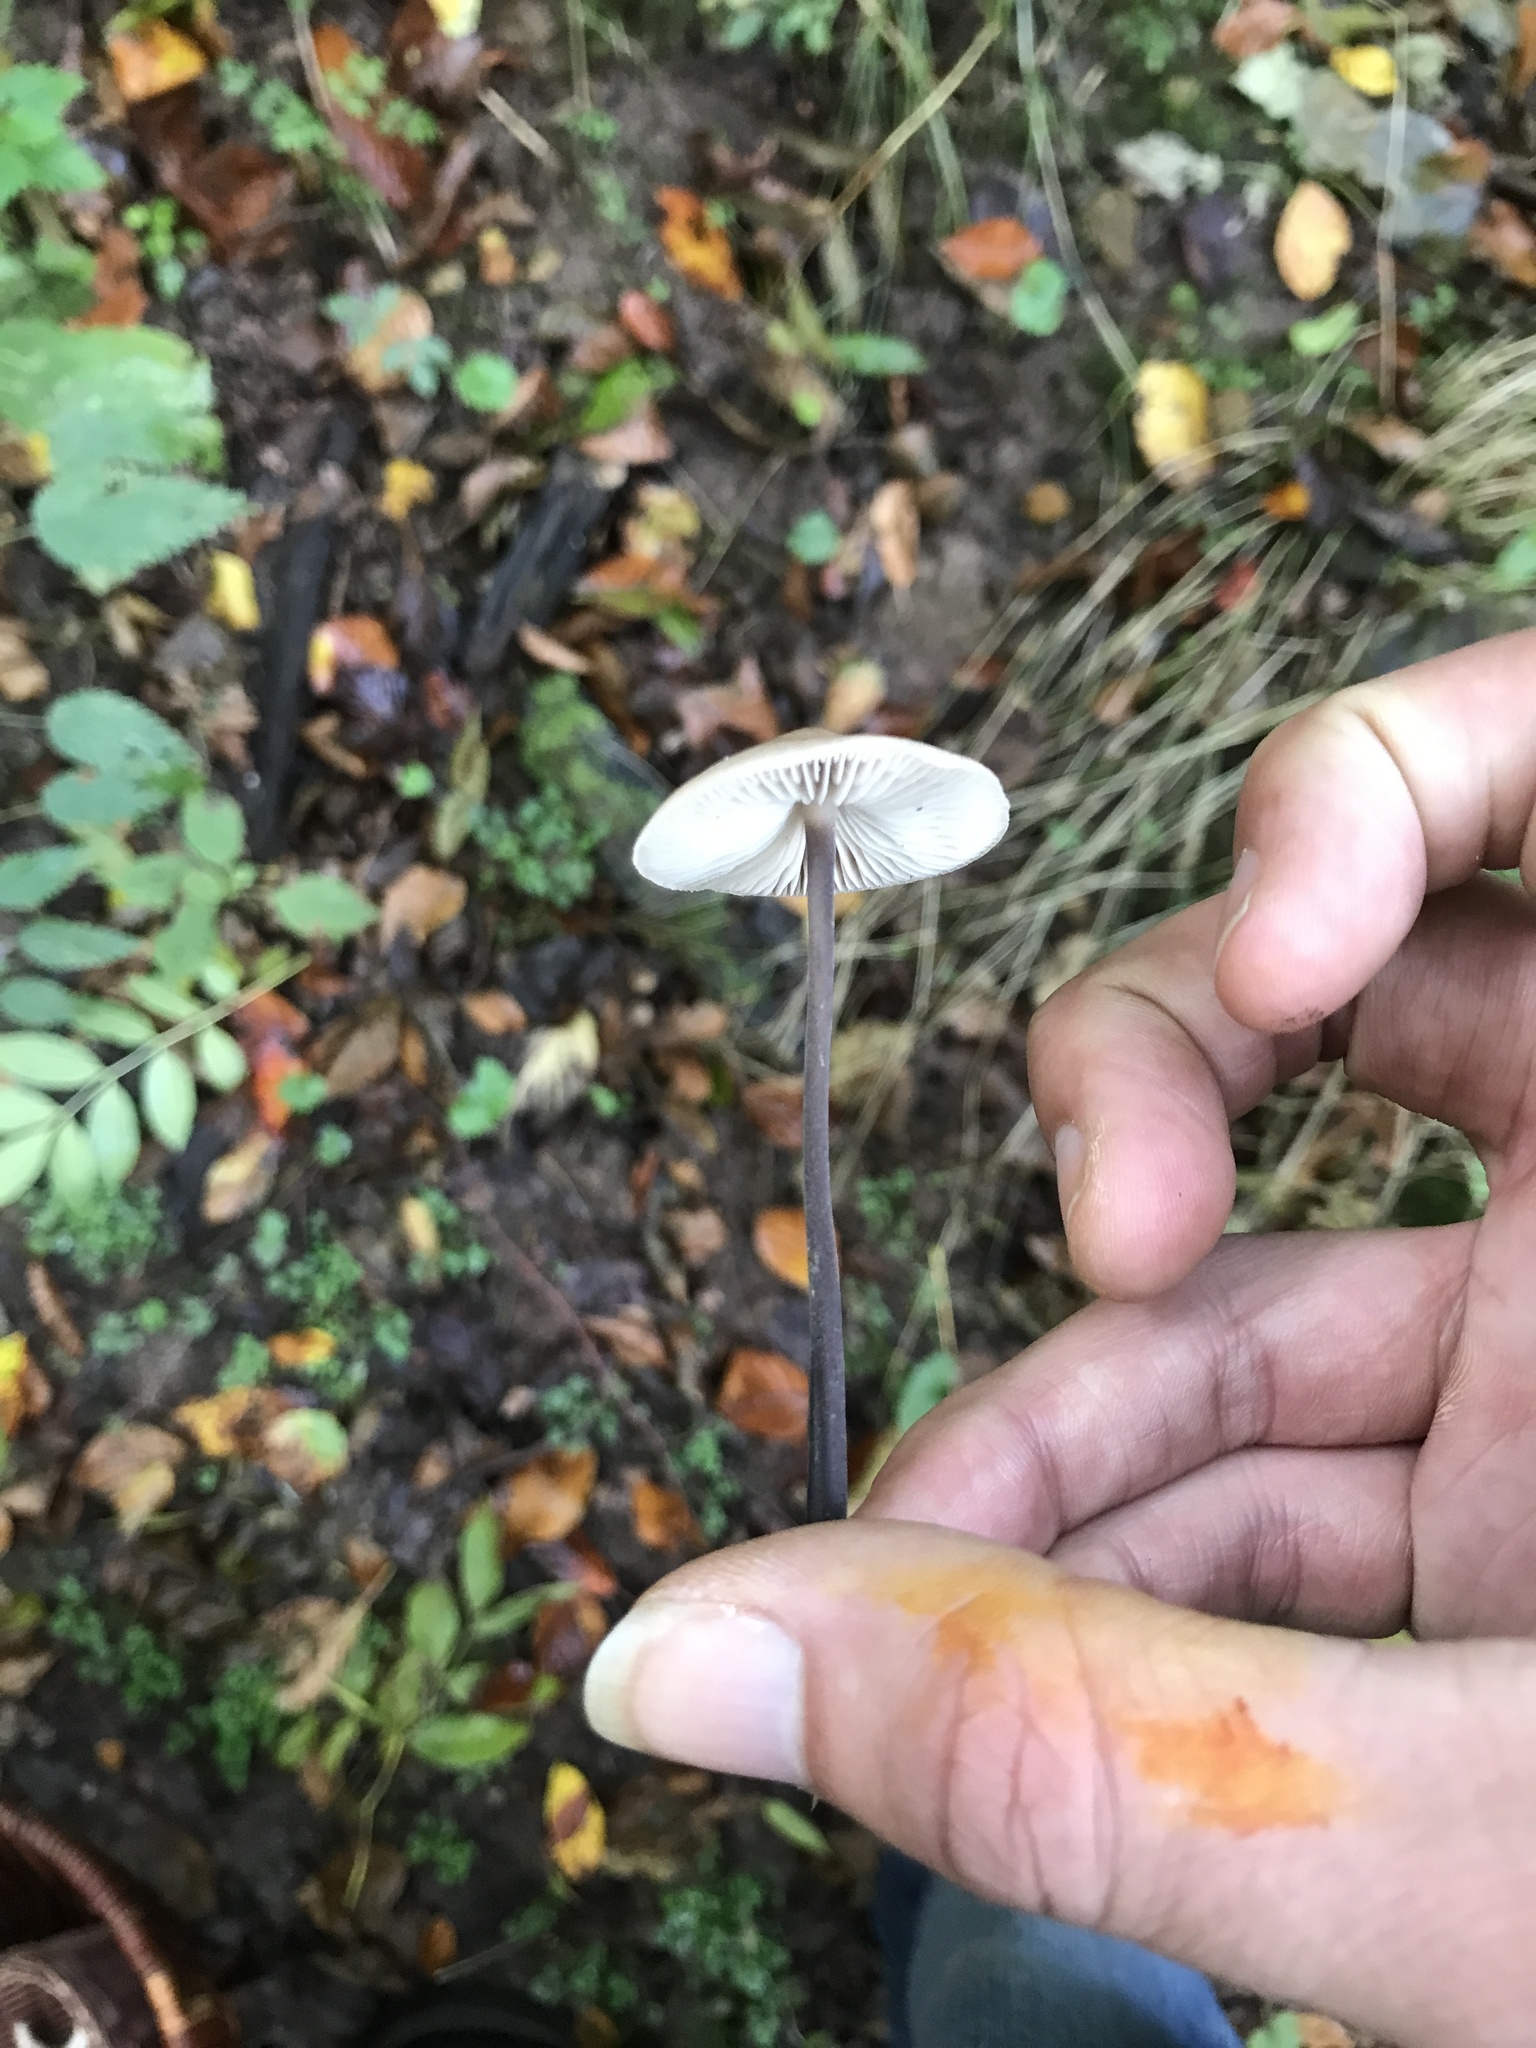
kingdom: Fungi
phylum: Basidiomycota
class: Agaricomycetes
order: Agaricales
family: Omphalotaceae
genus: Mycetinis
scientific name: Mycetinis alliaceus
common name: Garlic parachute
